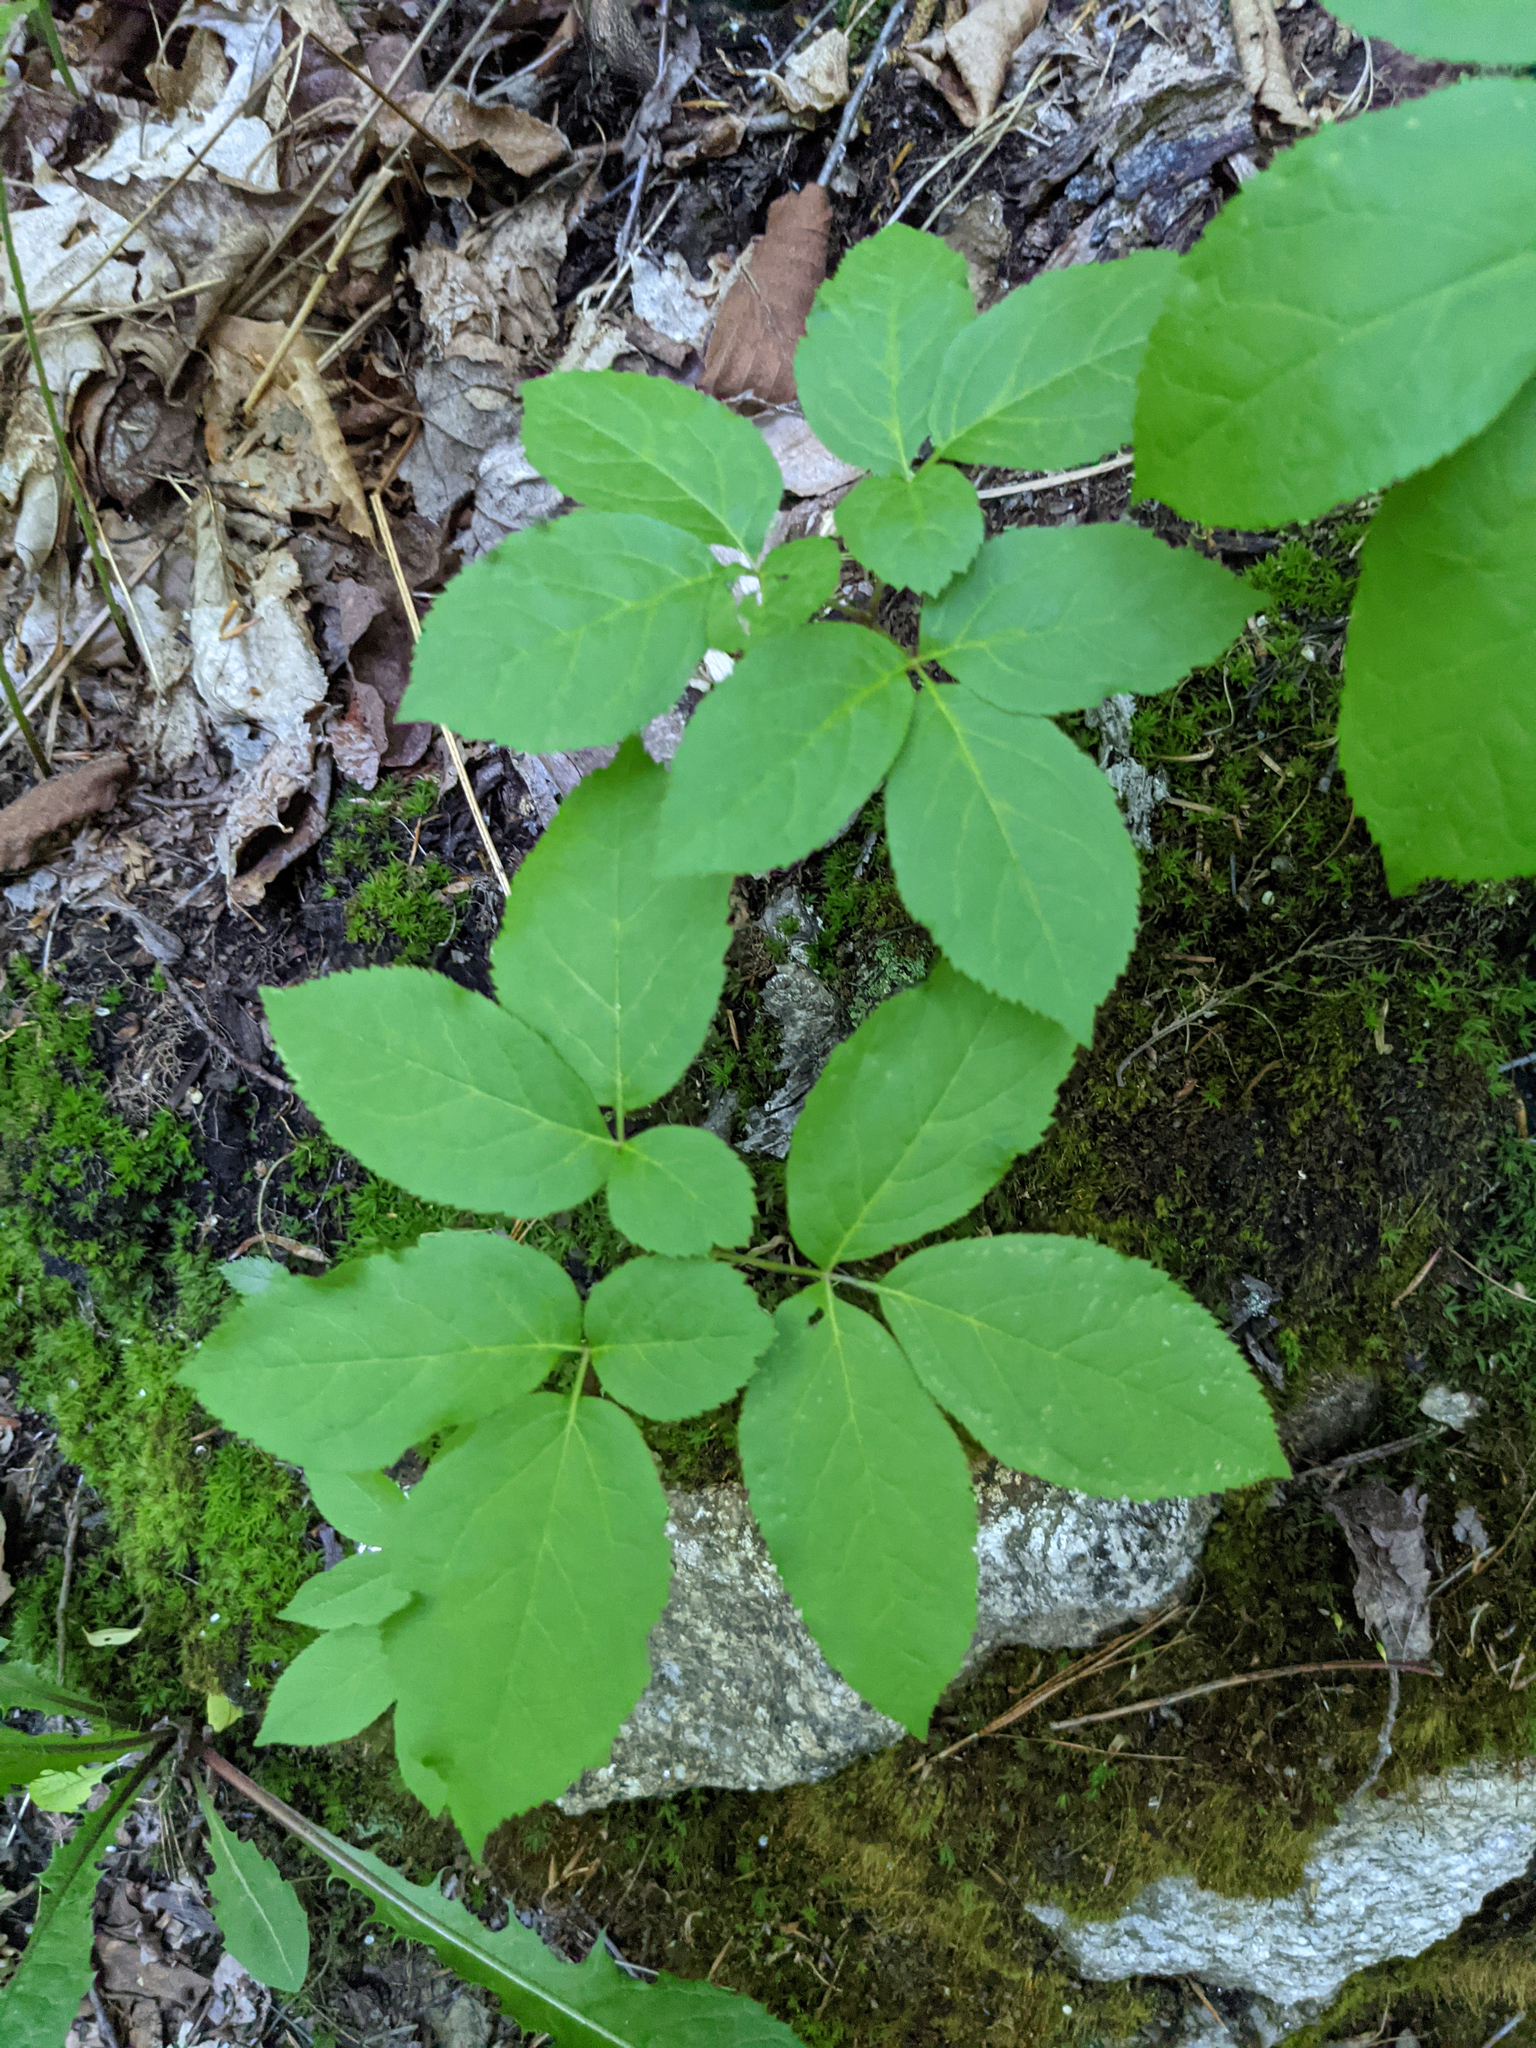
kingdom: Plantae
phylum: Tracheophyta
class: Magnoliopsida
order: Apiales
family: Araliaceae
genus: Aralia
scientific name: Aralia nudicaulis
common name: Wild sarsaparilla
